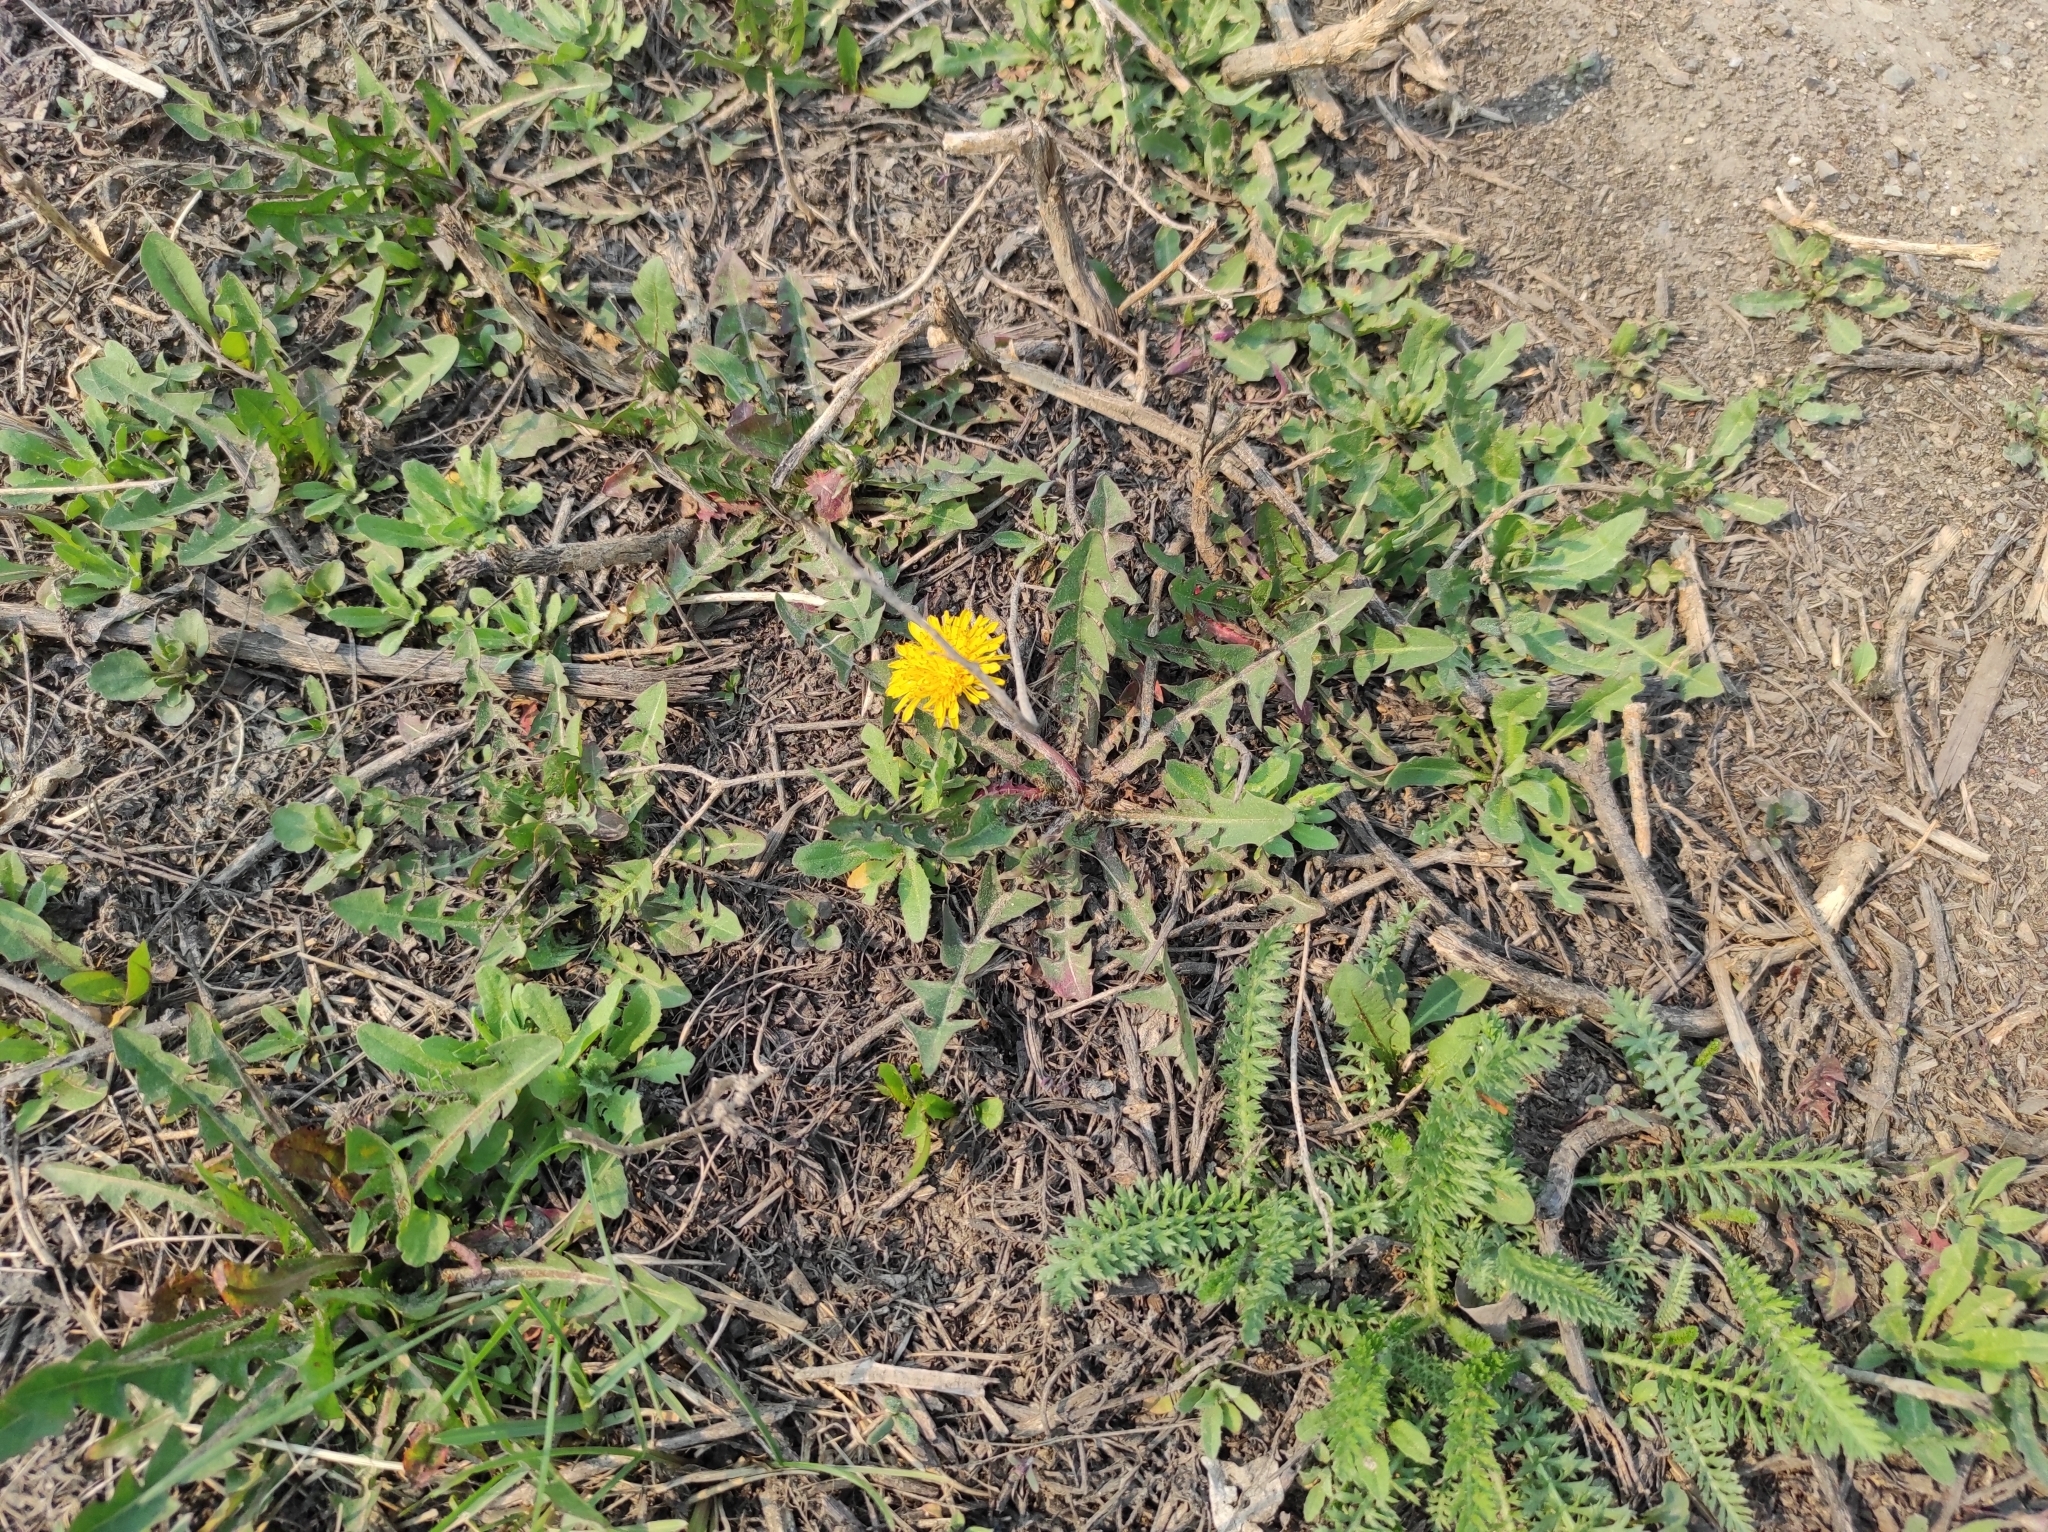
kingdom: Plantae
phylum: Tracheophyta
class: Magnoliopsida
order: Asterales
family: Asteraceae
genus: Taraxacum
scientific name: Taraxacum officinale
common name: Common dandelion
